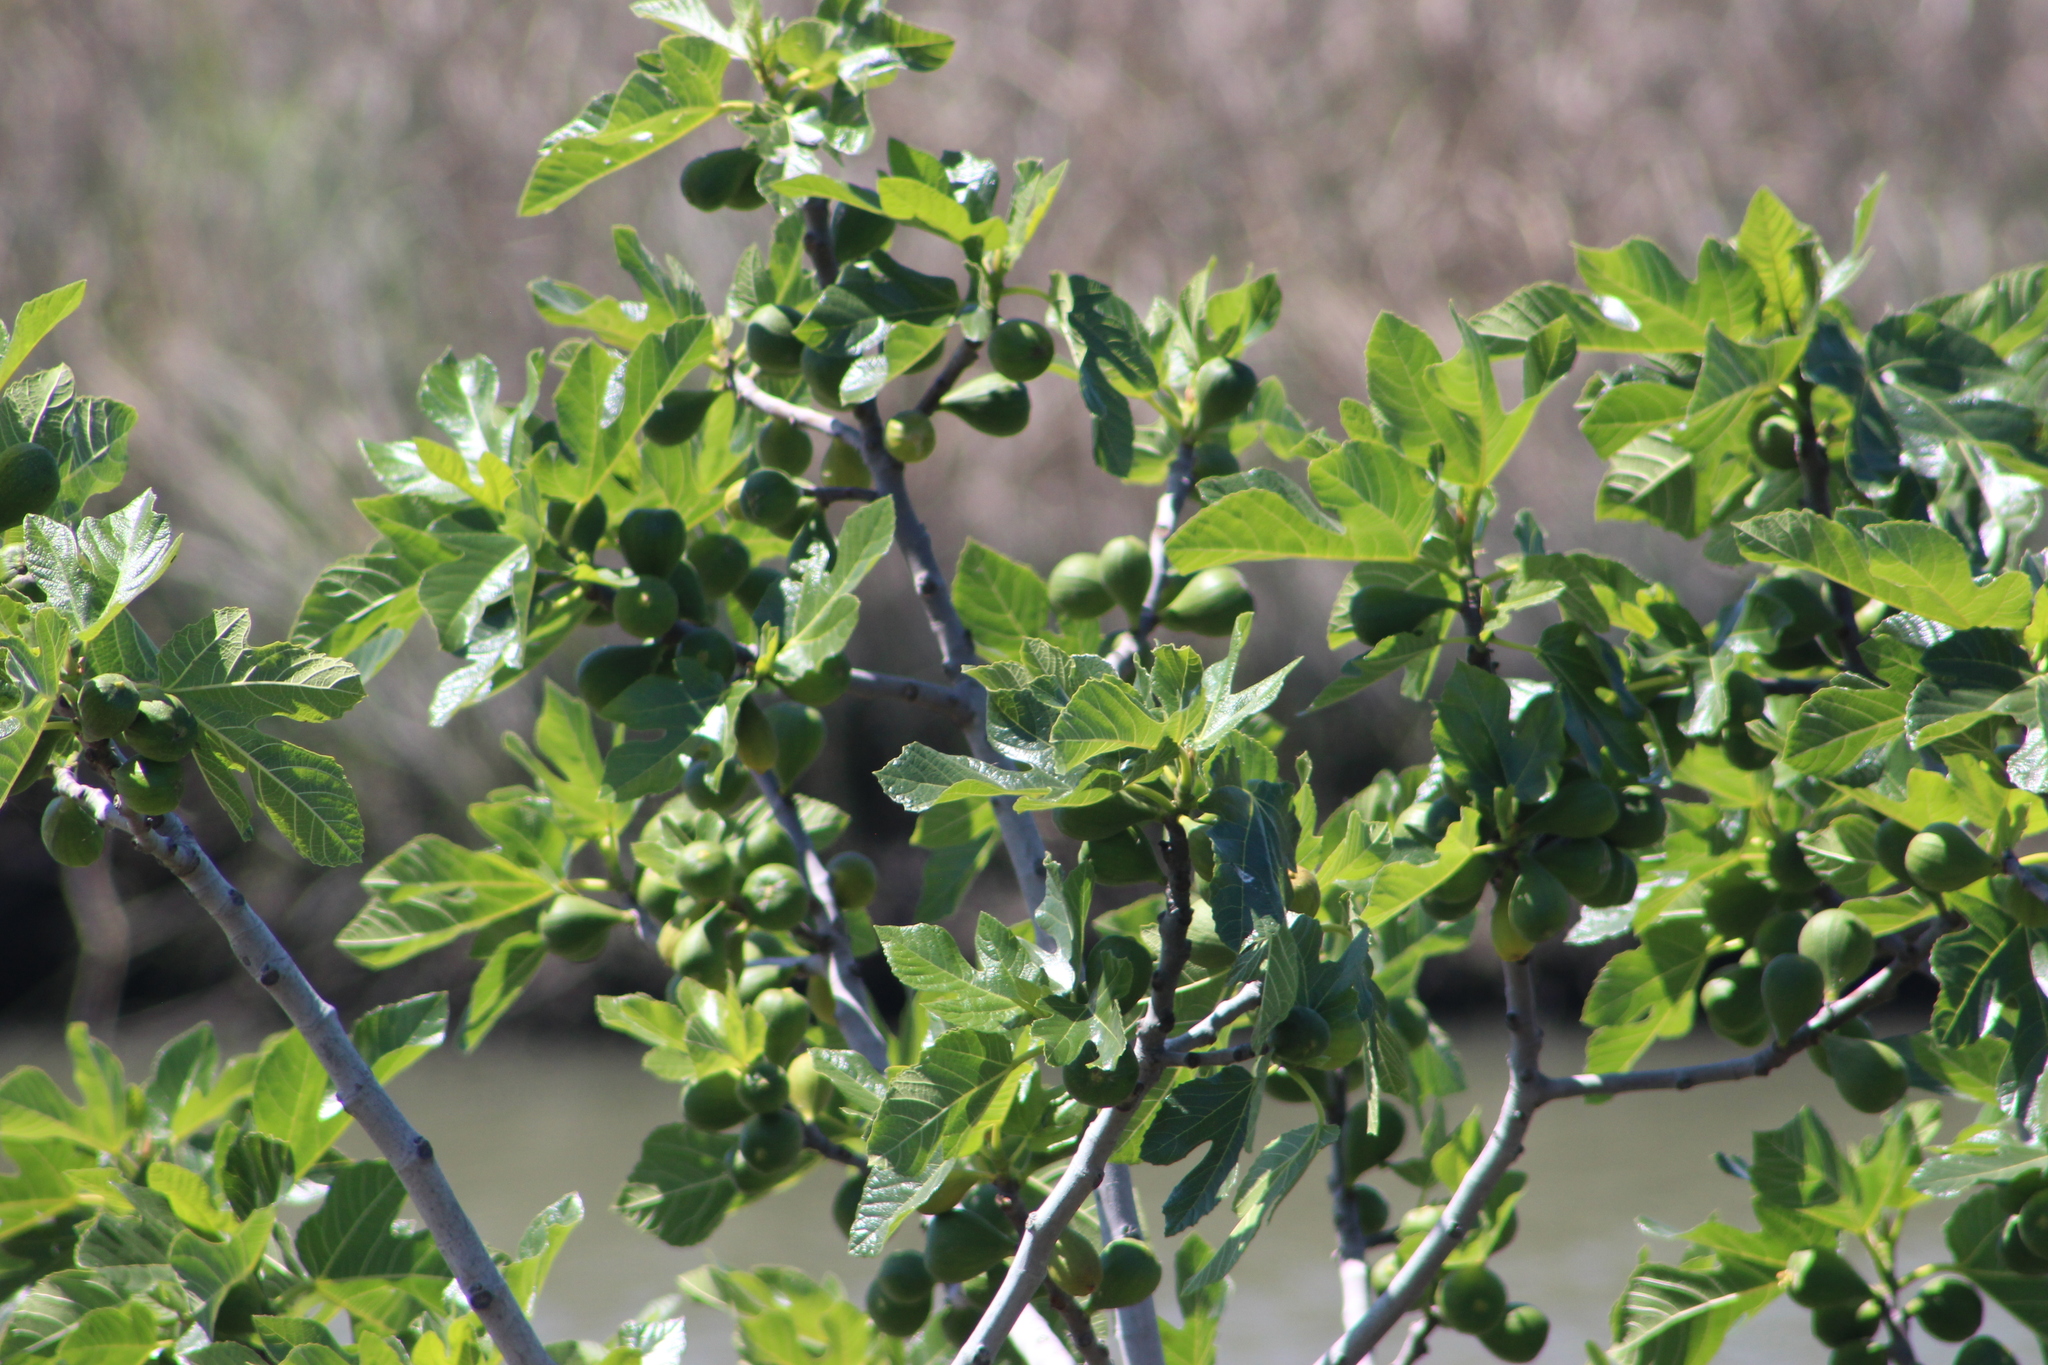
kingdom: Plantae
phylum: Tracheophyta
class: Magnoliopsida
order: Rosales
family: Moraceae
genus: Ficus
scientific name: Ficus carica
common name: Fig
